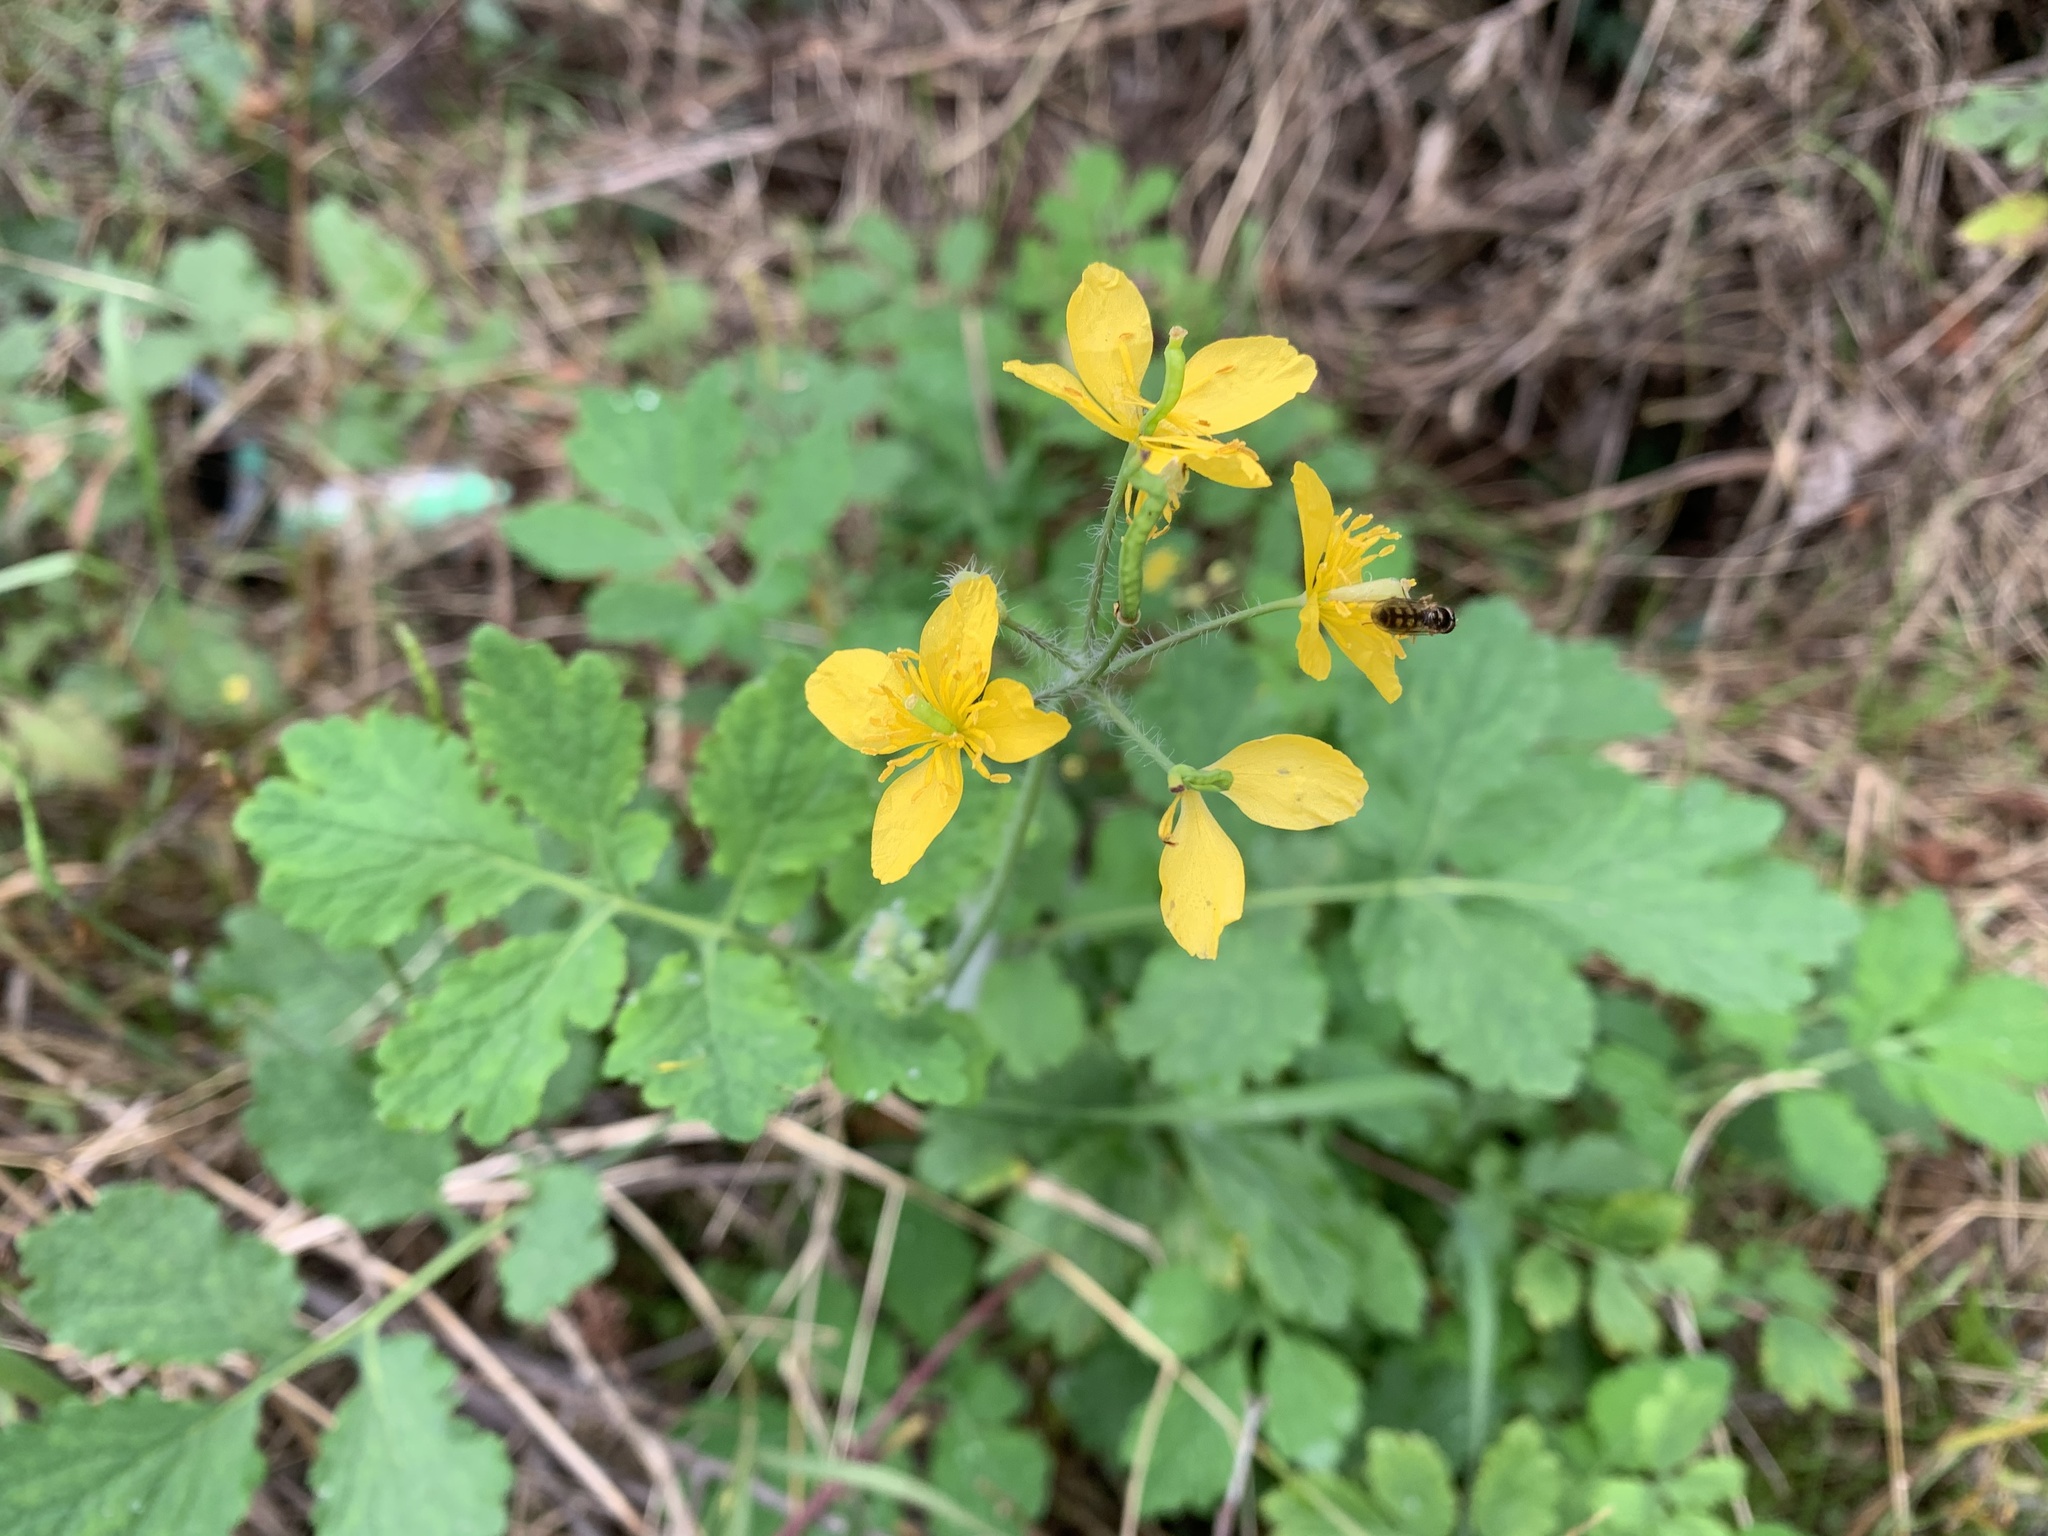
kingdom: Plantae
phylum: Tracheophyta
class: Magnoliopsida
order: Ranunculales
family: Papaveraceae
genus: Chelidonium
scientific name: Chelidonium majus
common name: Greater celandine
